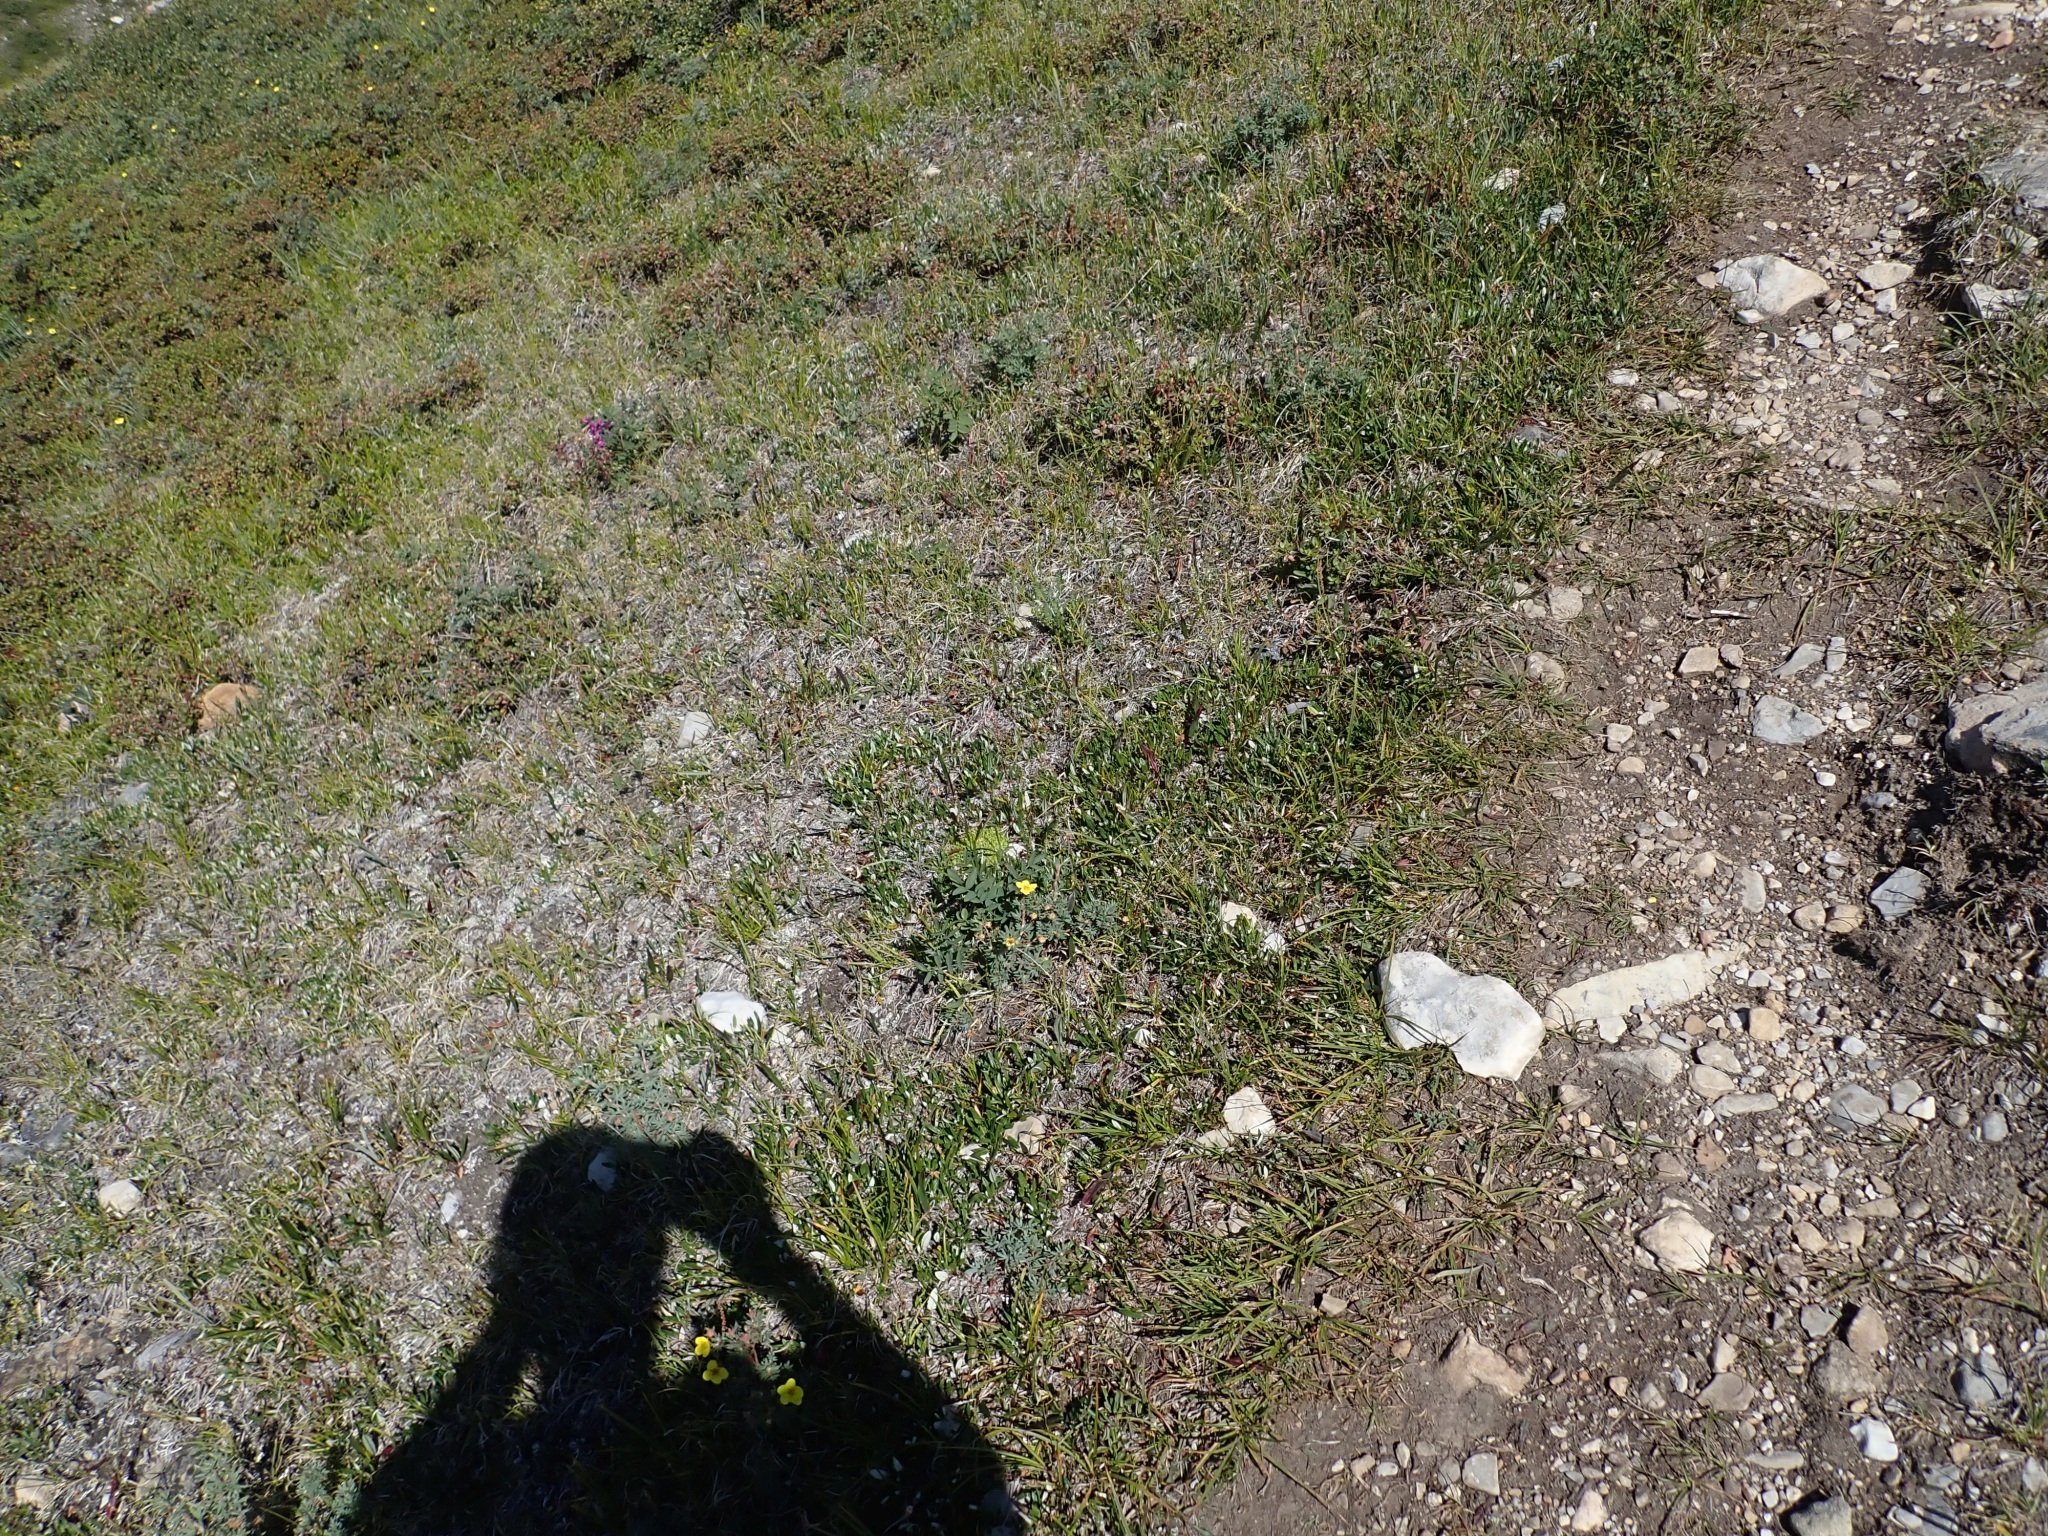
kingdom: Plantae
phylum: Tracheophyta
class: Magnoliopsida
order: Caryophyllales
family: Caryophyllaceae
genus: Silene
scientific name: Silene acaulis
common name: Moss campion
